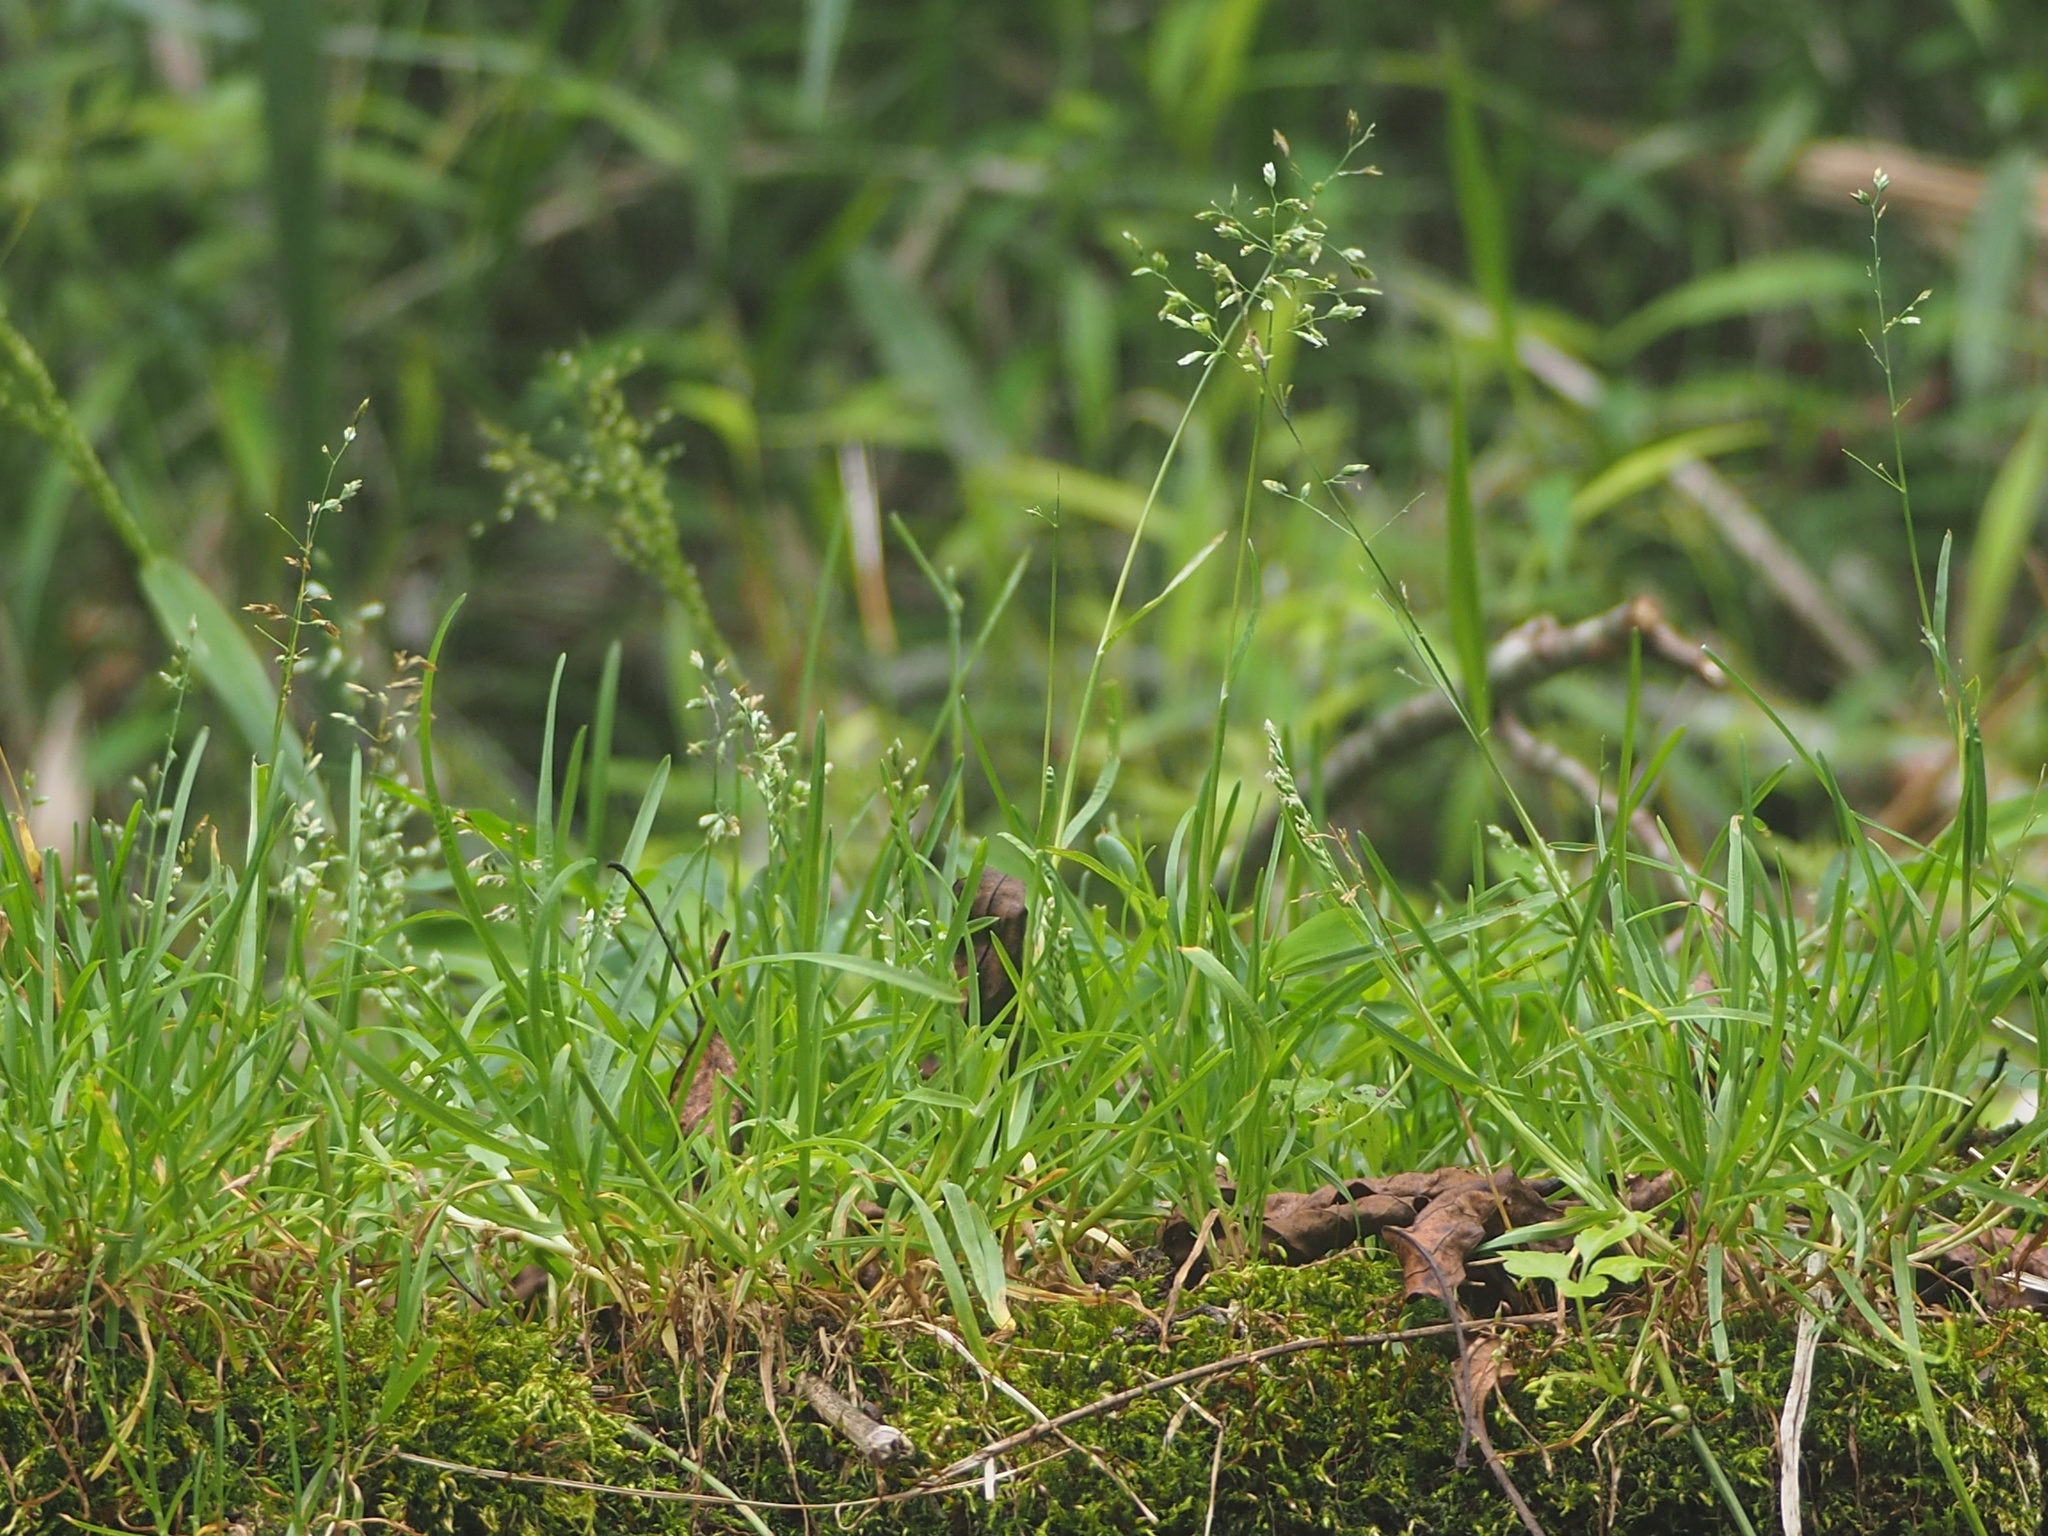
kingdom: Plantae
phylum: Tracheophyta
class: Liliopsida
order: Poales
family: Poaceae
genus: Poa
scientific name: Poa annua
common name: Annual bluegrass
